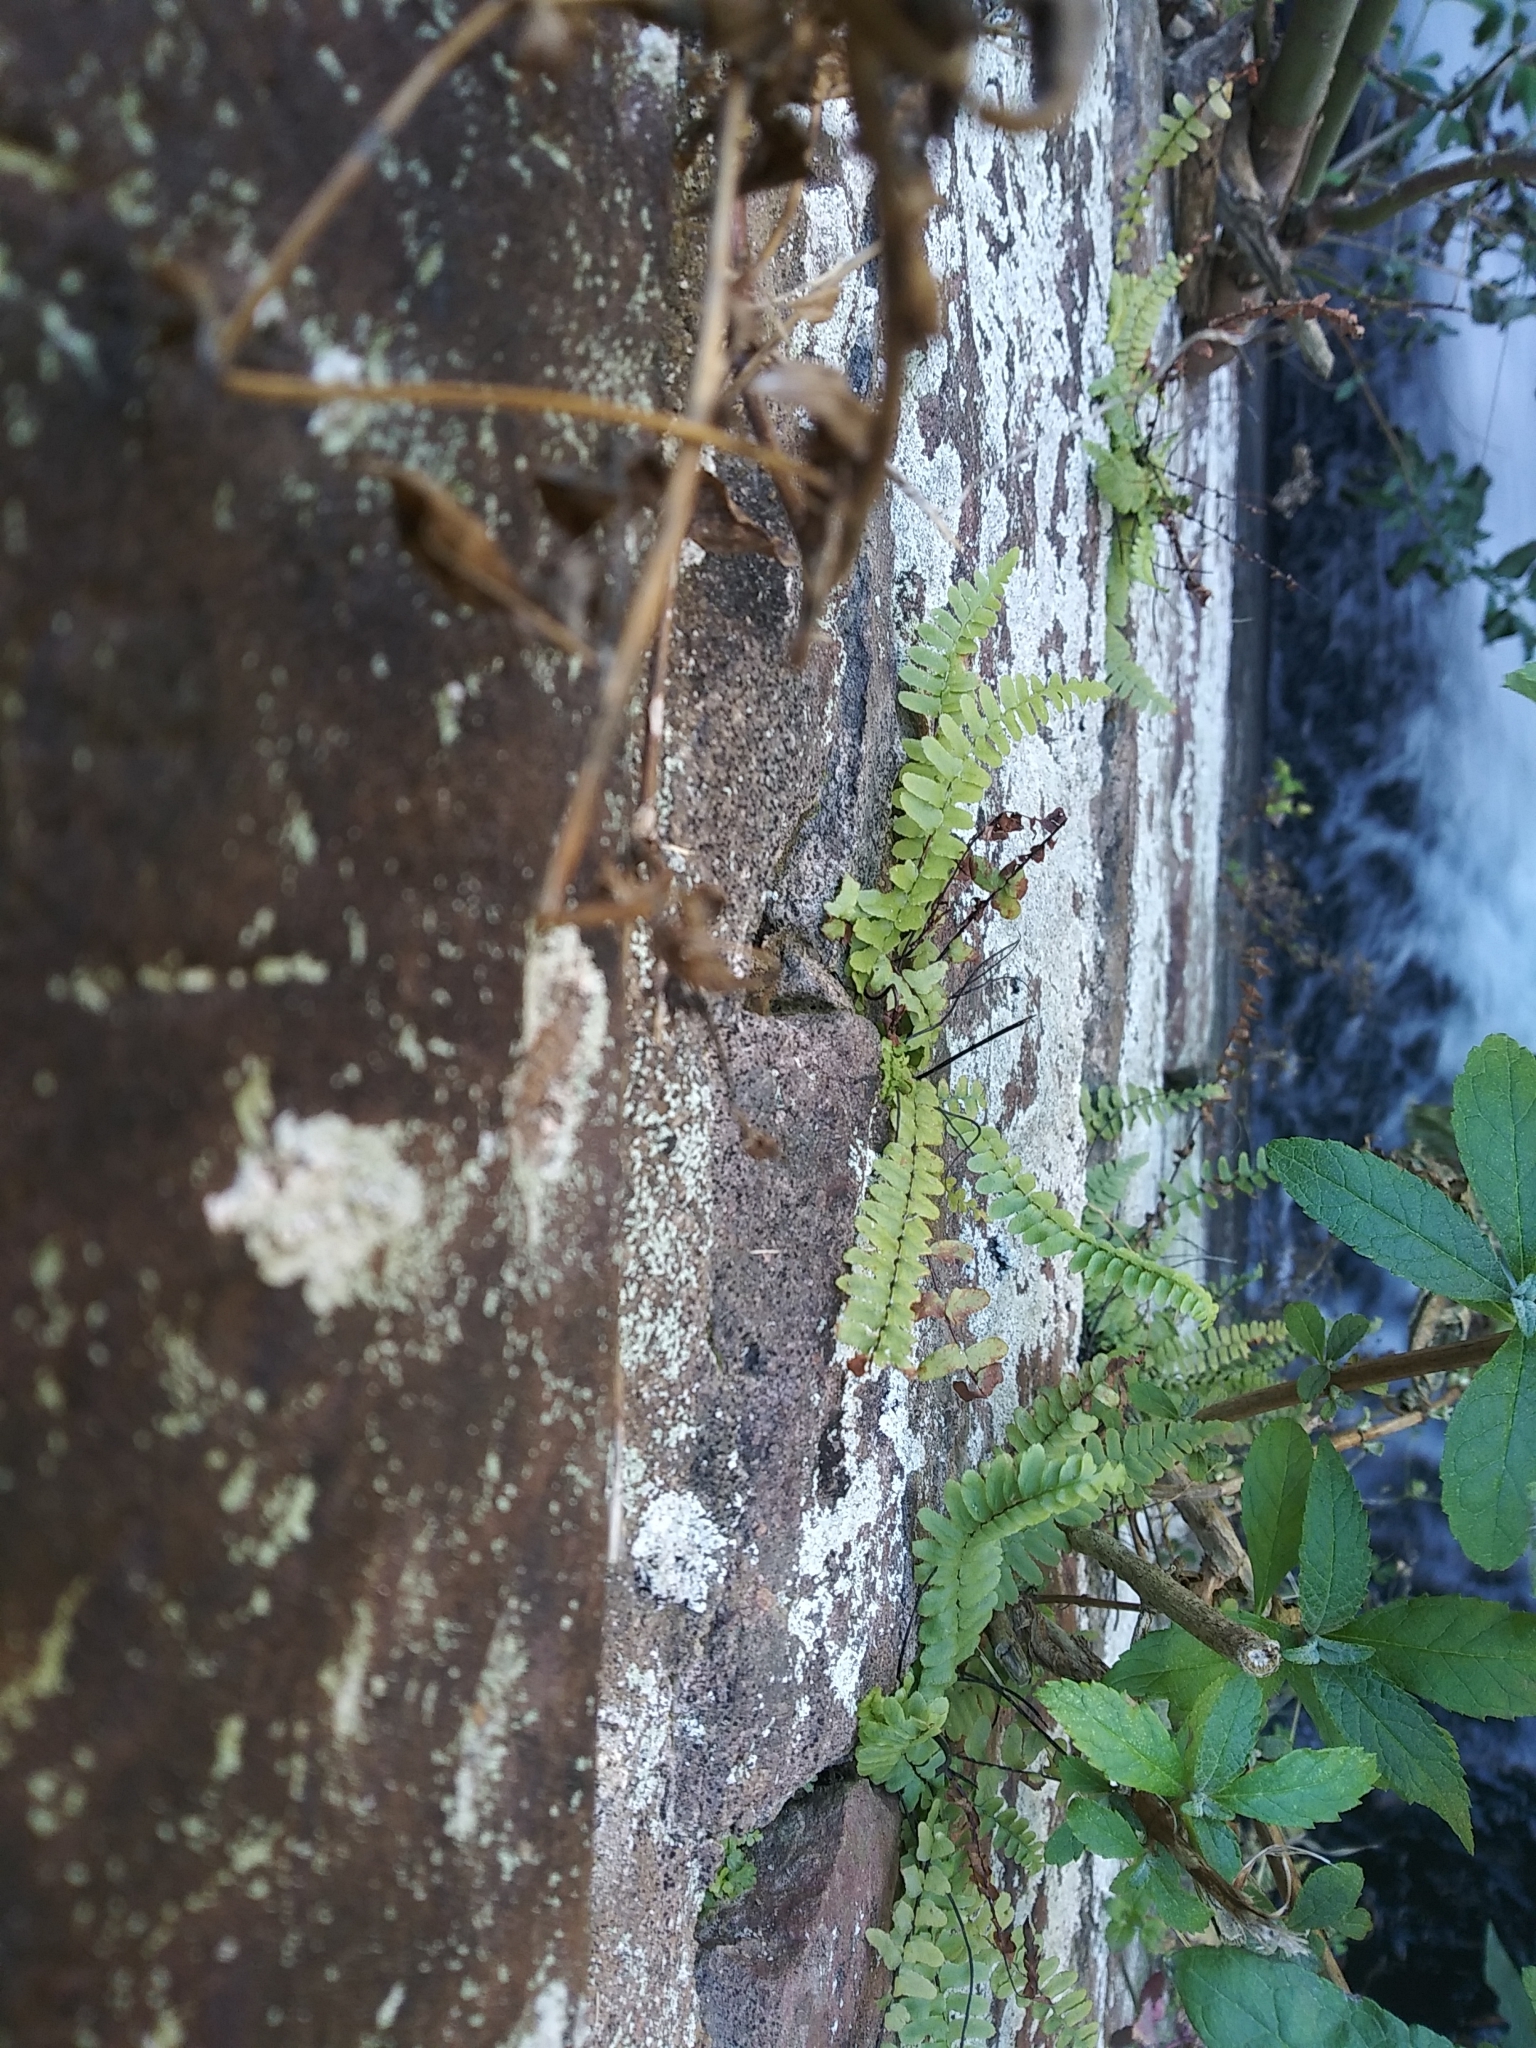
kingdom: Plantae
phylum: Tracheophyta
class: Polypodiopsida
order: Polypodiales
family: Aspleniaceae
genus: Asplenium
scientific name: Asplenium platyneuron
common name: Ebony spleenwort
